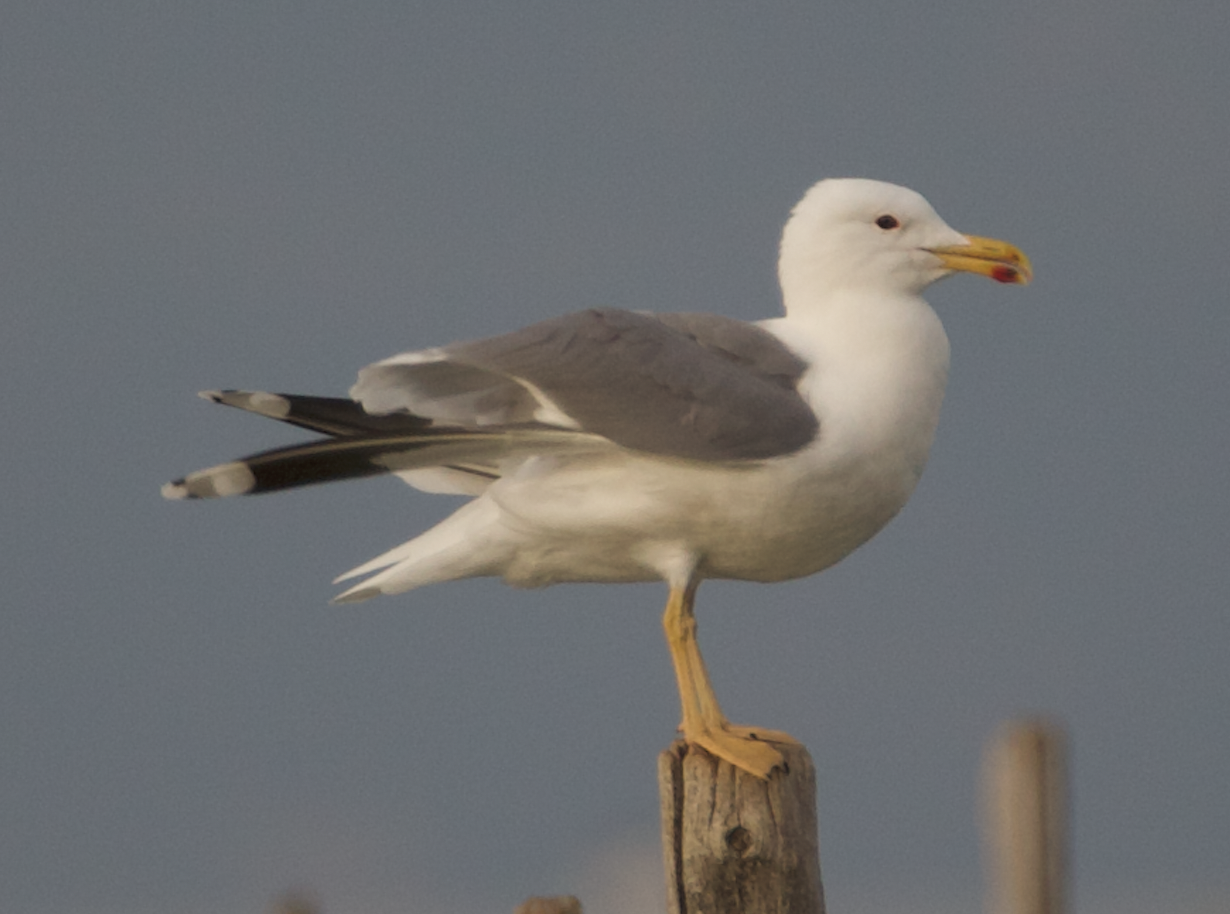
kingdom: Animalia
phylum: Chordata
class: Aves
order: Charadriiformes
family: Laridae
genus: Larus
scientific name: Larus michahellis
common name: Yellow-legged gull
